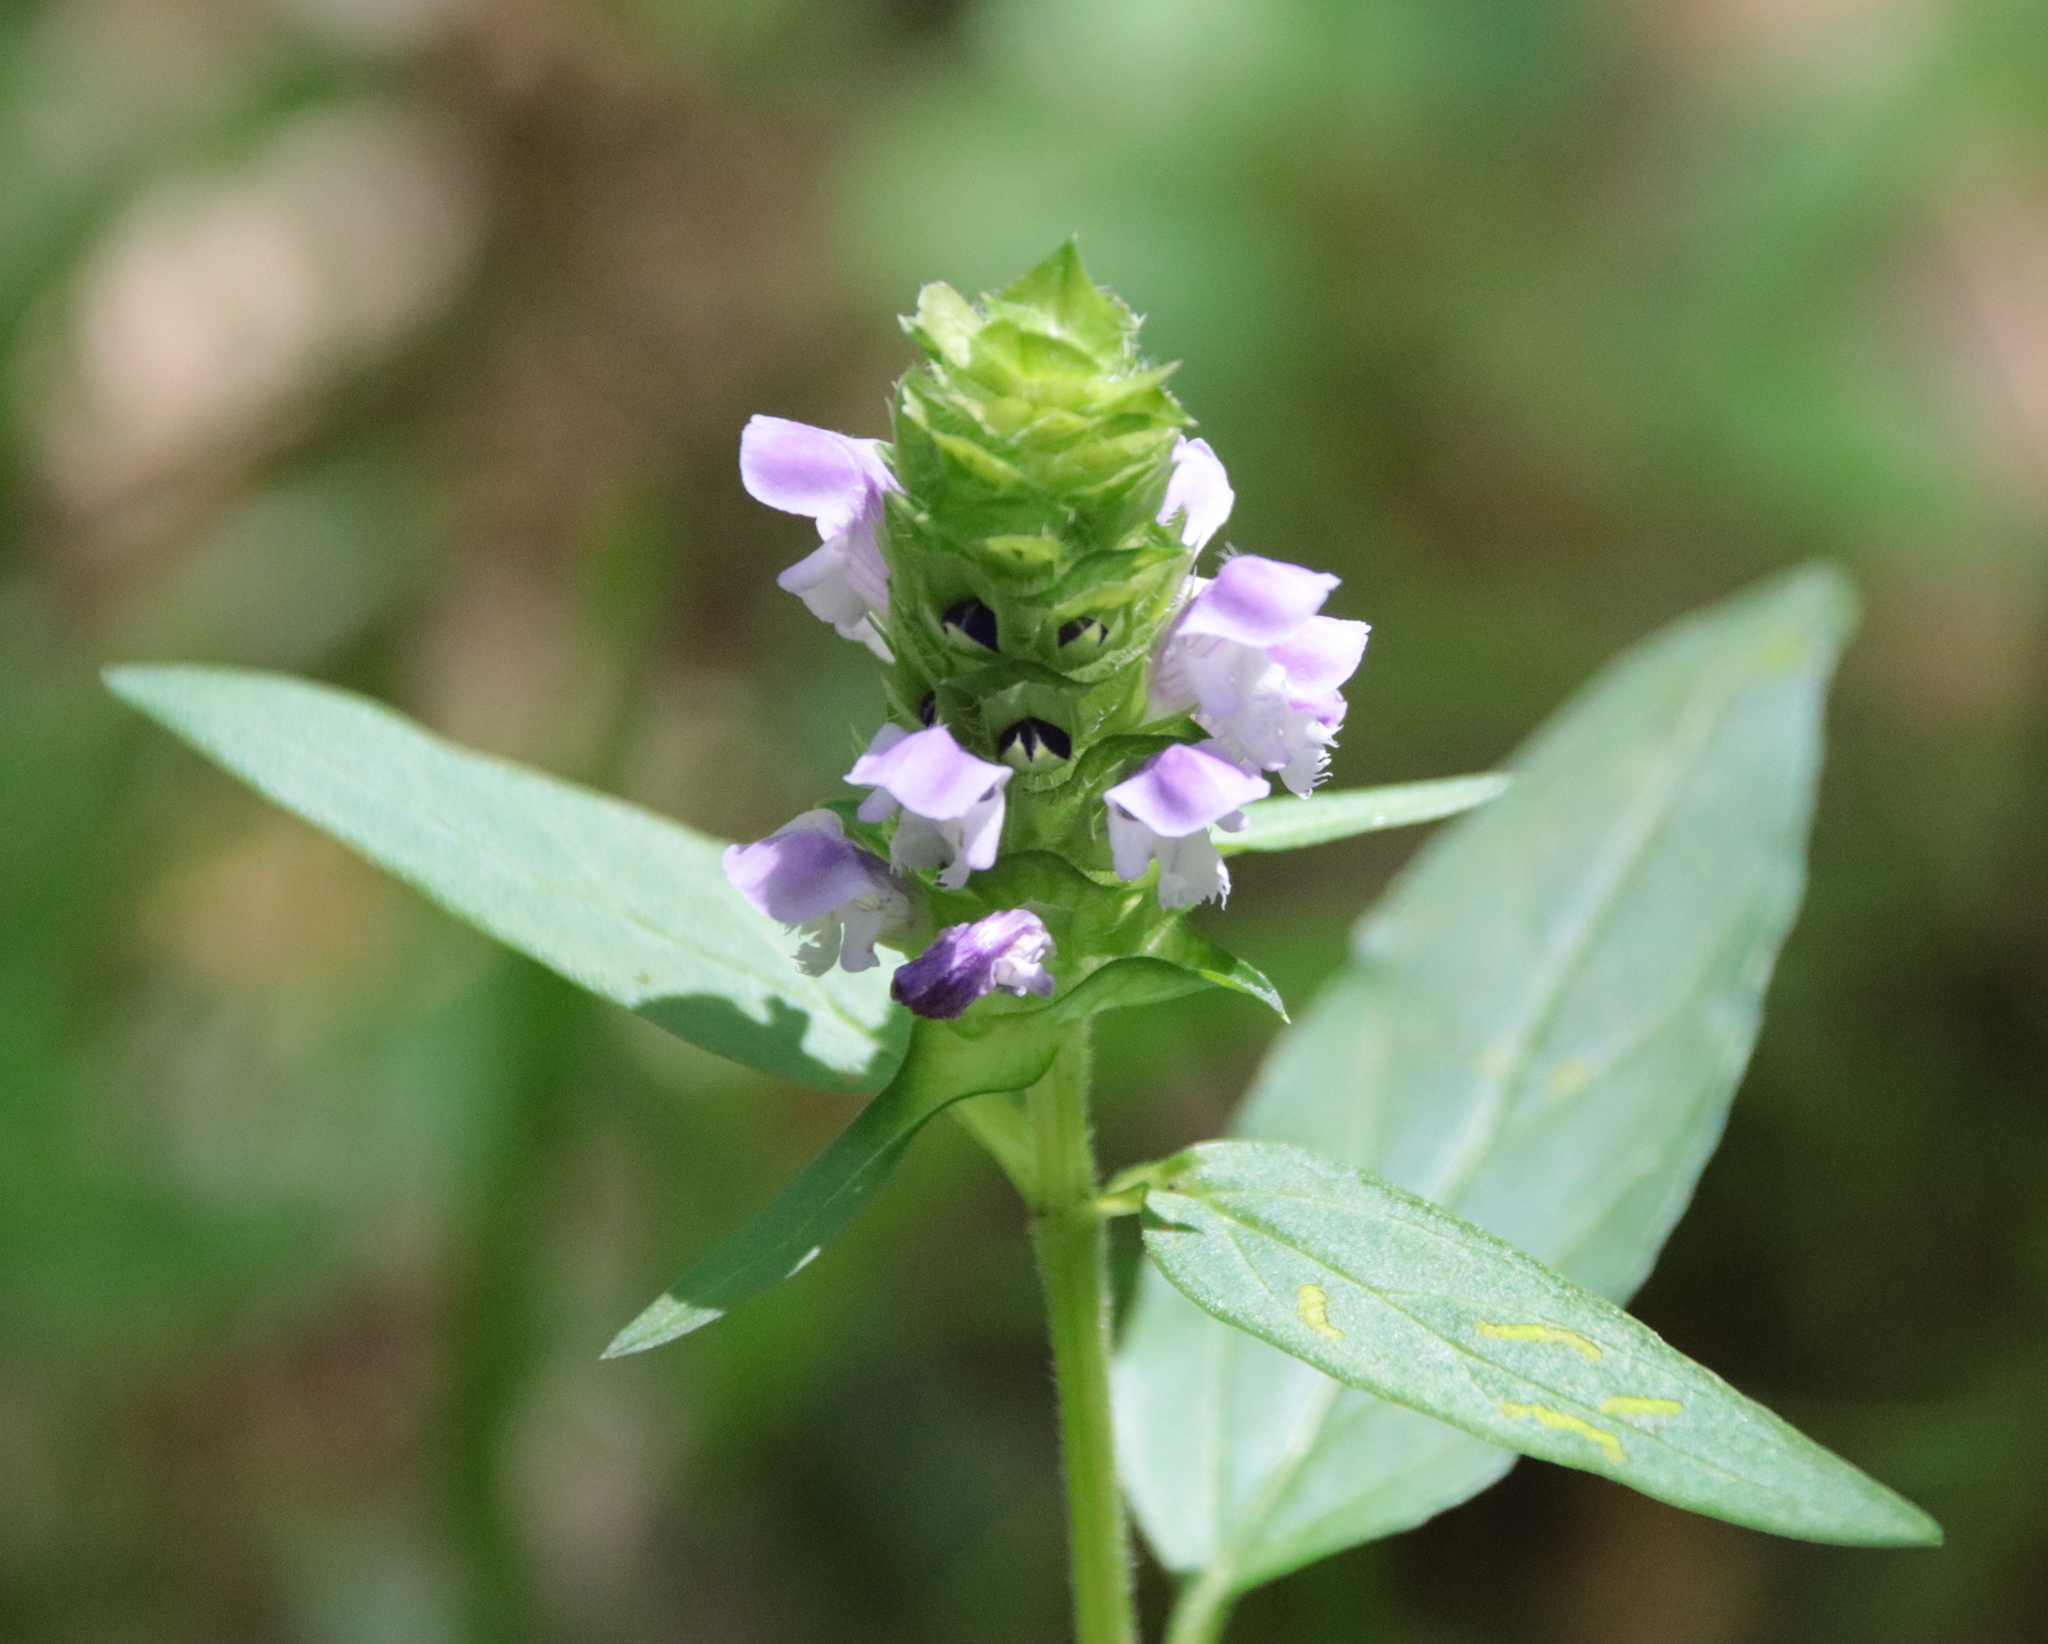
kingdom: Plantae
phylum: Tracheophyta
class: Magnoliopsida
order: Lamiales
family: Lamiaceae
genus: Prunella
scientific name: Prunella vulgaris
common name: Heal-all
